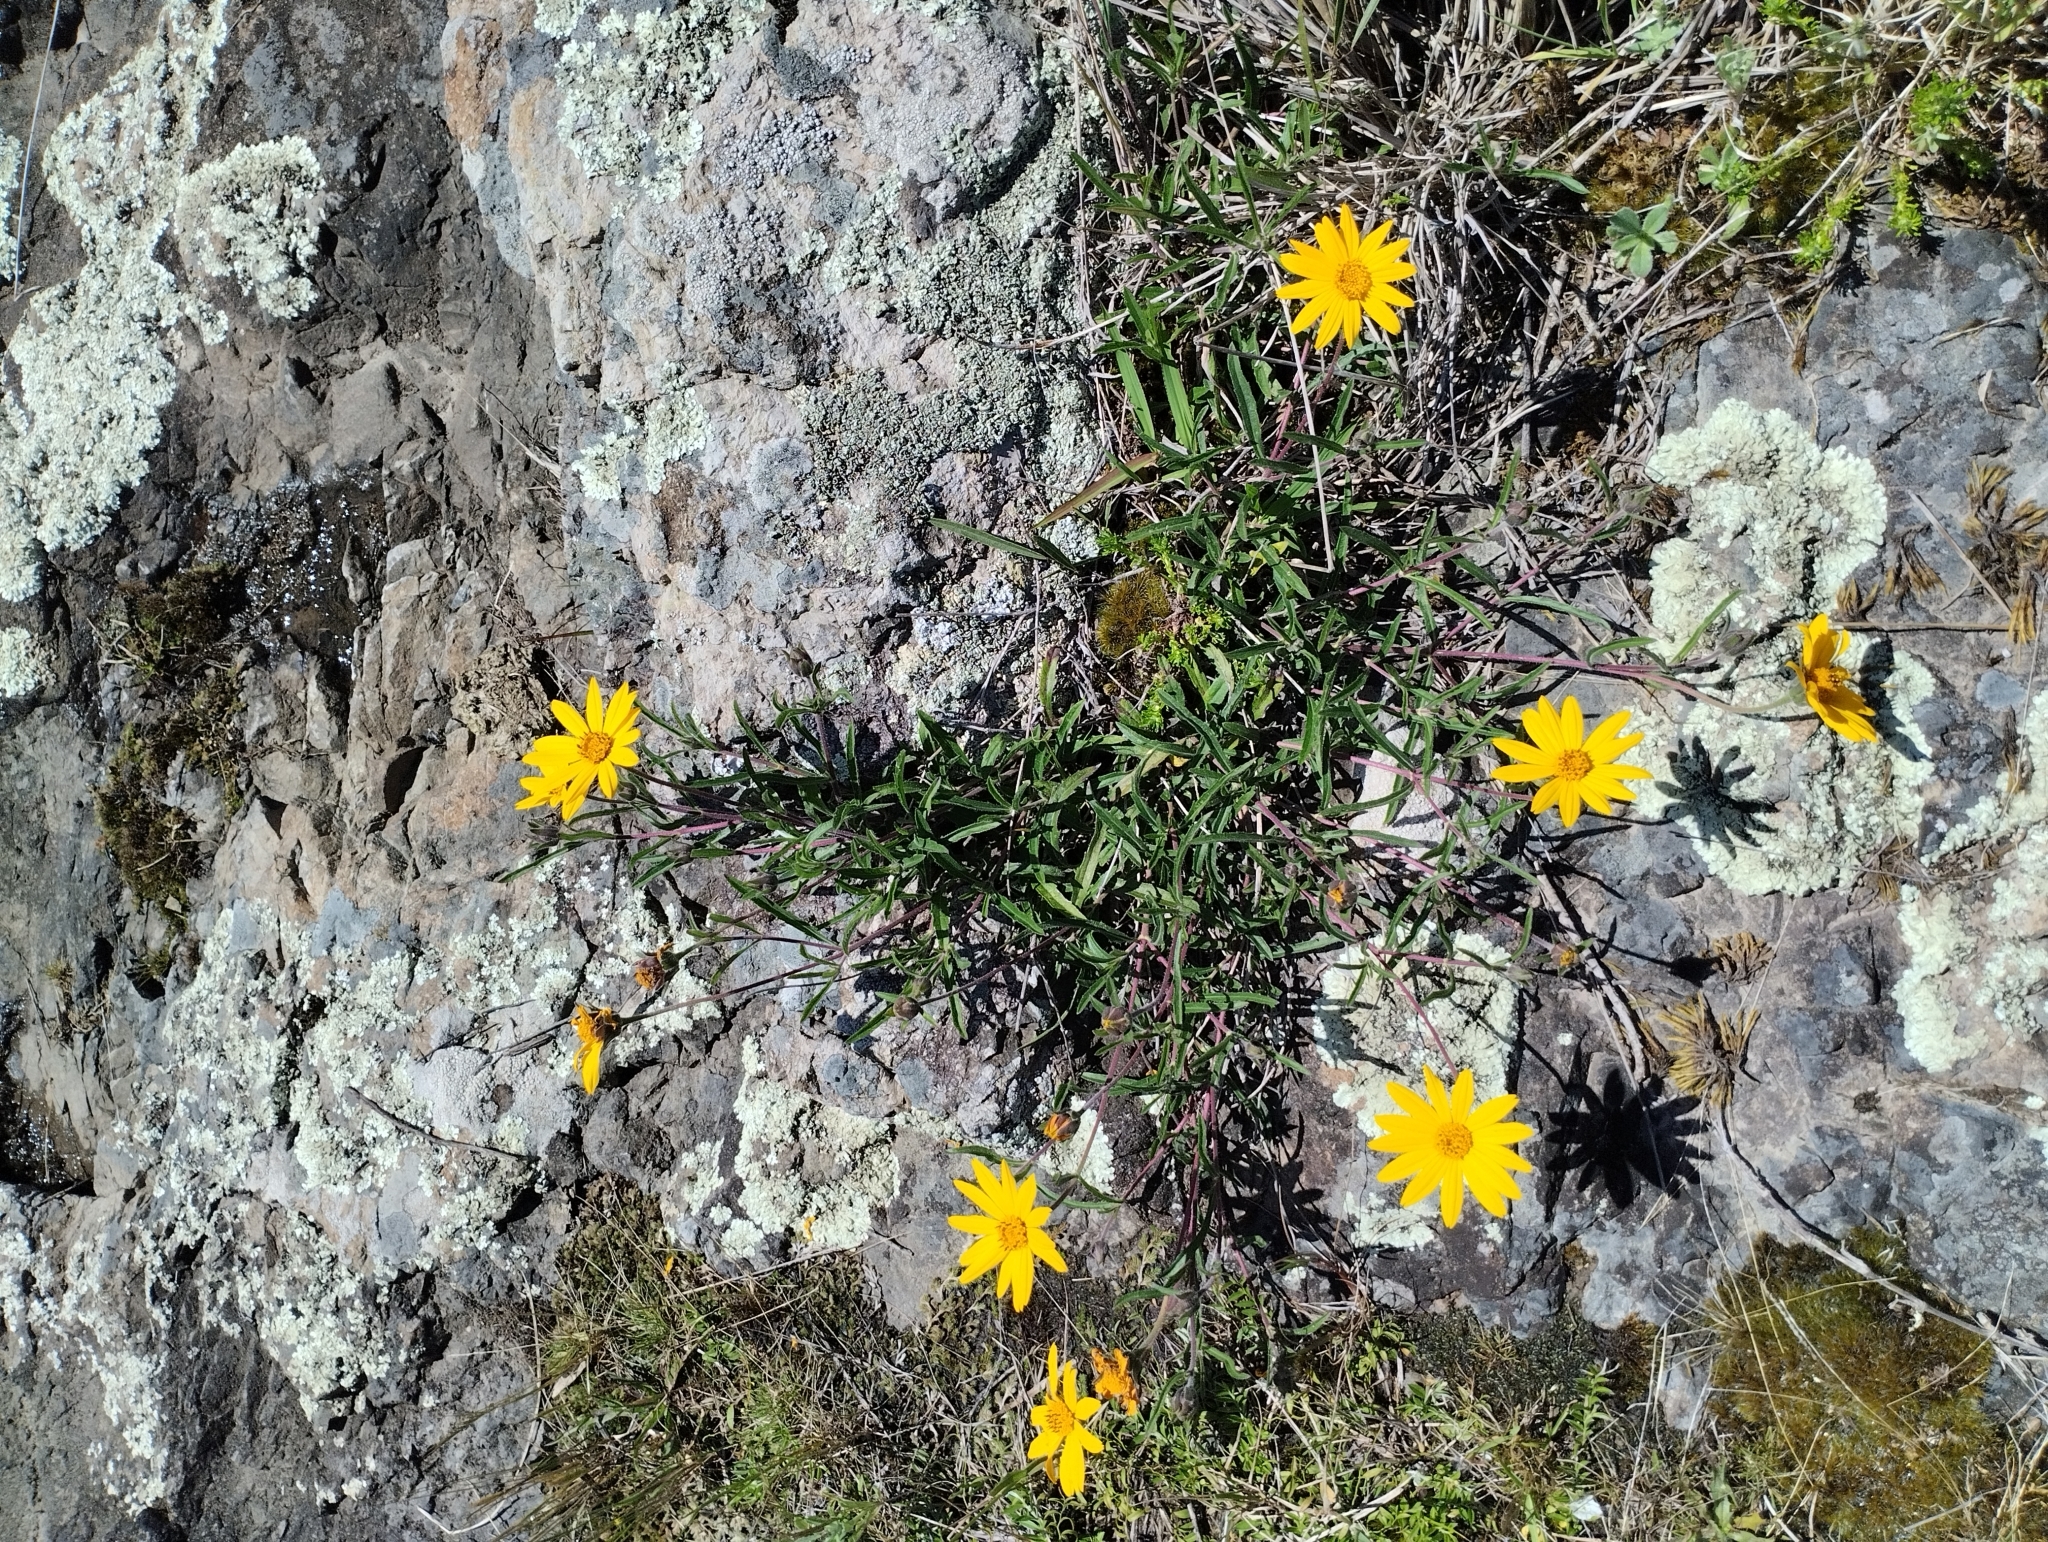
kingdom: Plantae
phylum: Tracheophyta
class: Magnoliopsida
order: Asterales
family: Asteraceae
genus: Wedelia
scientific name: Wedelia montevidensis
